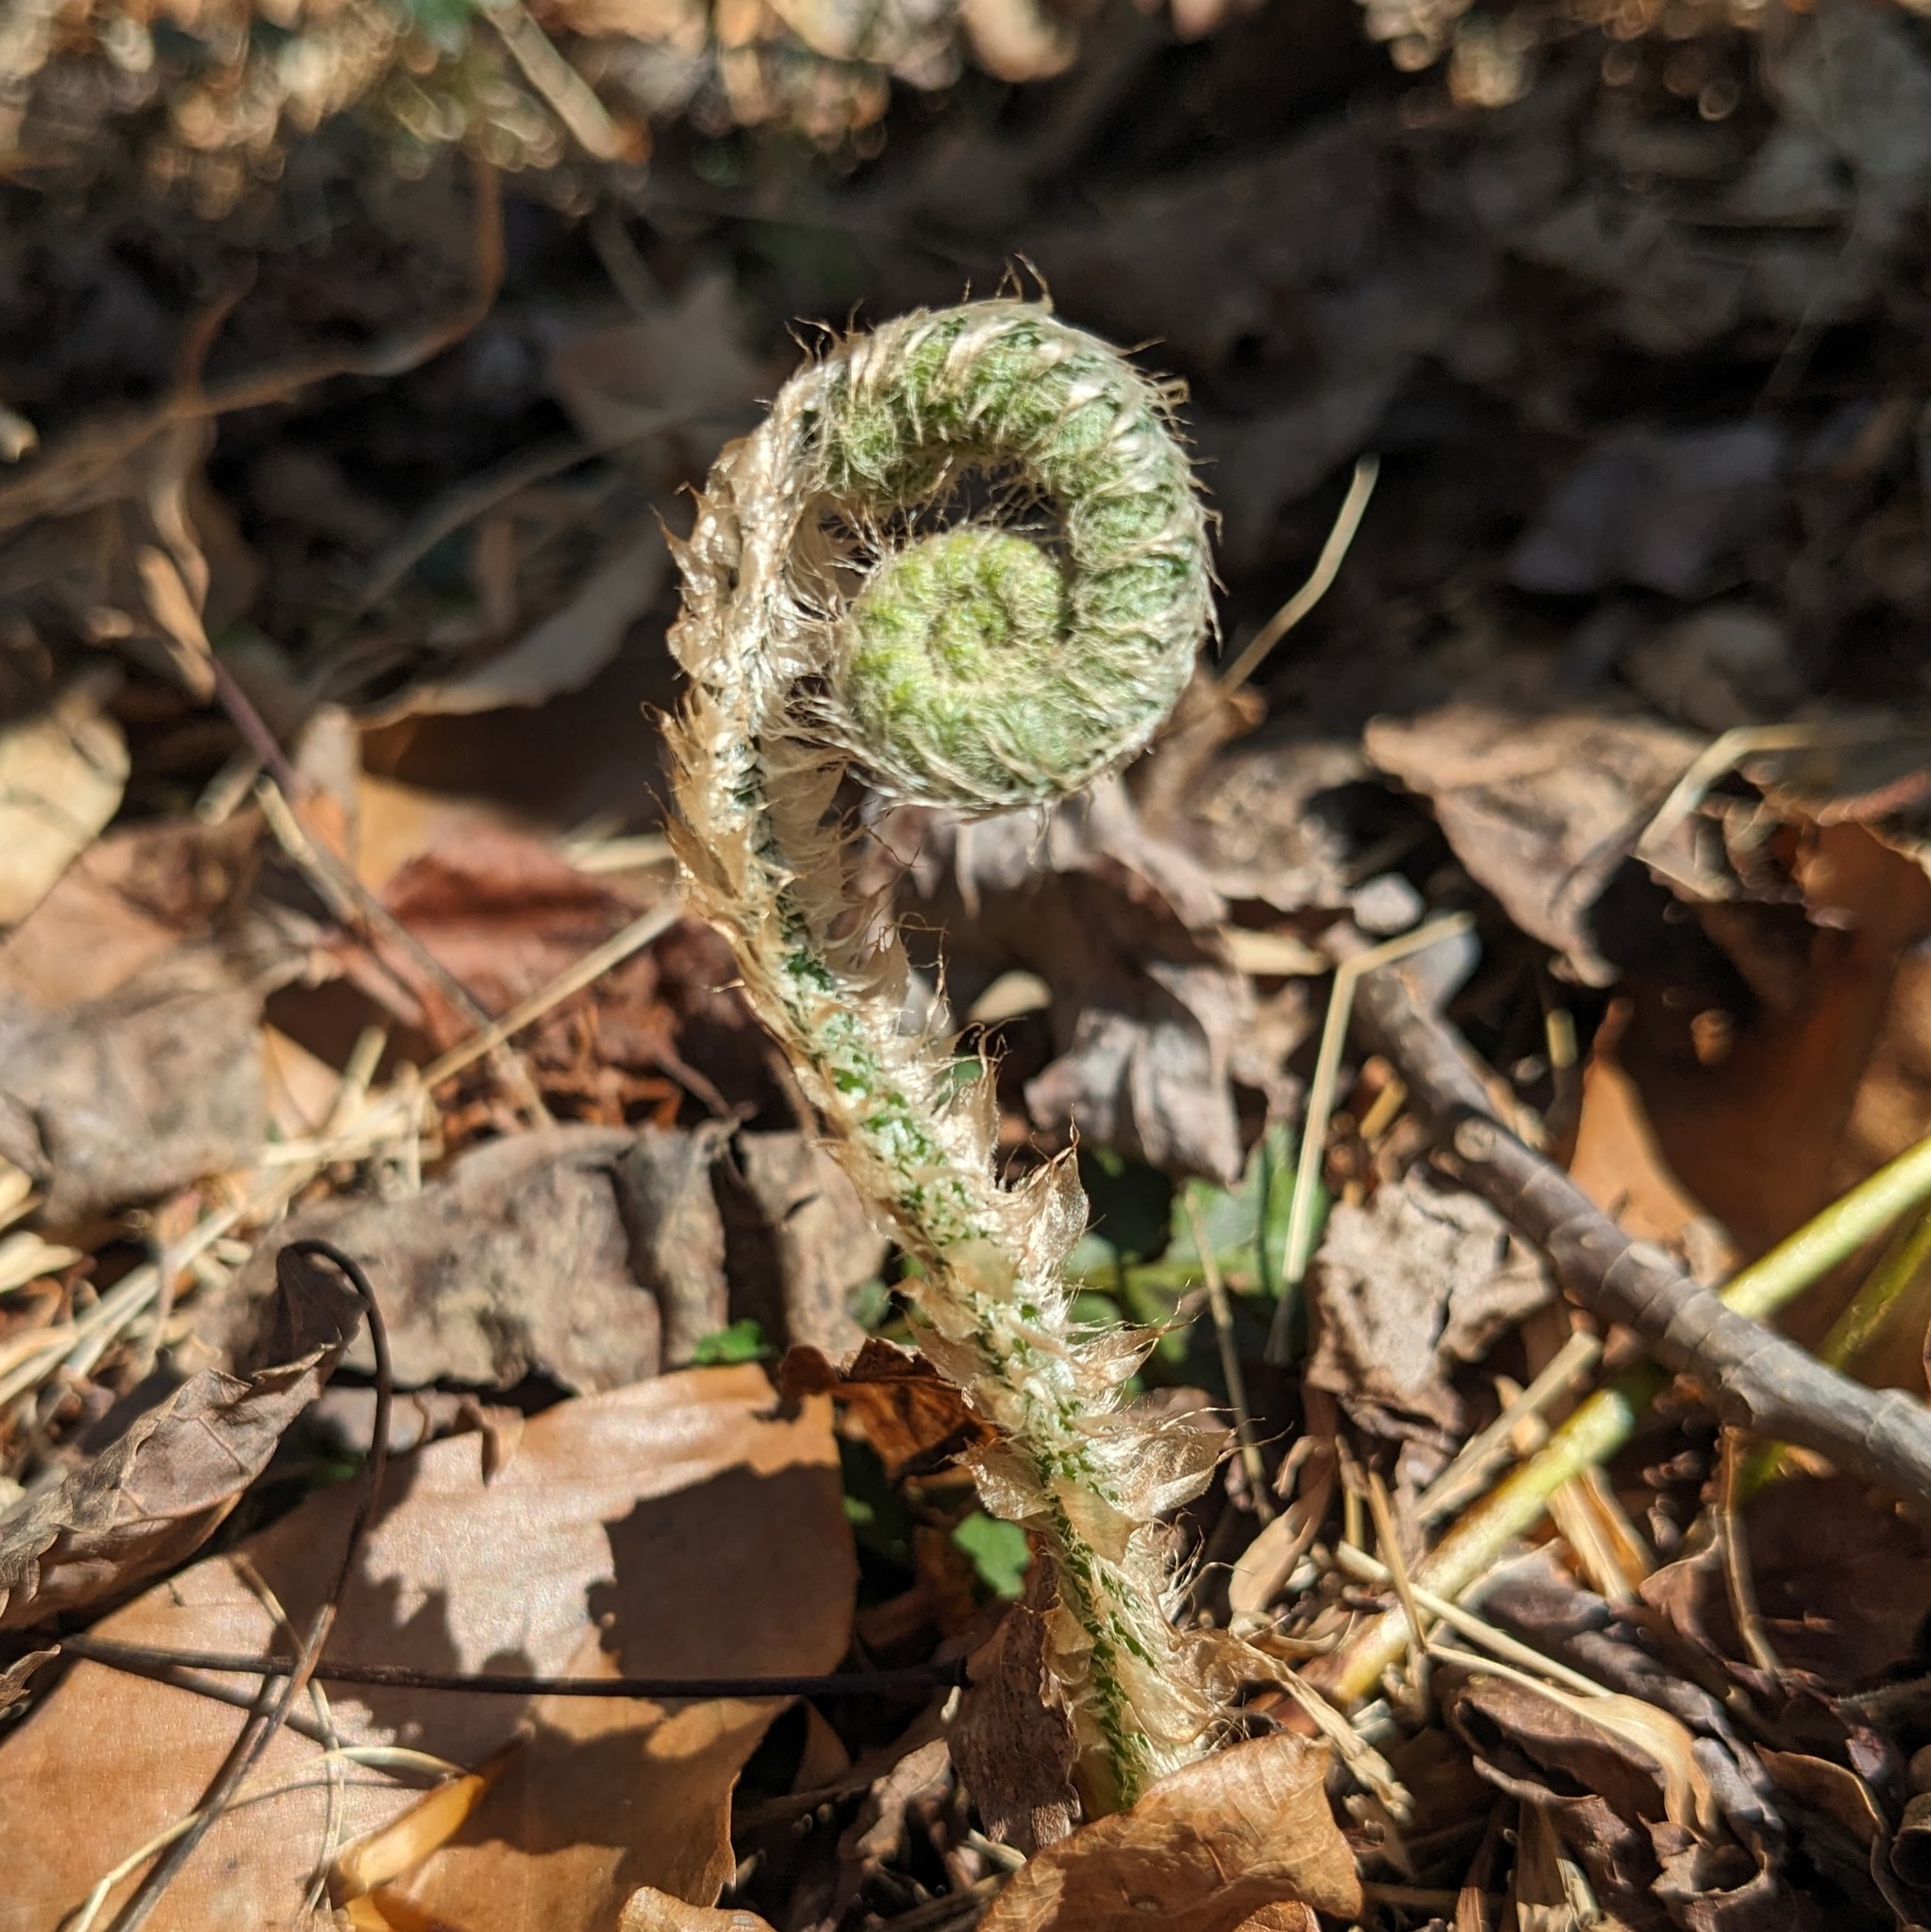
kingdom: Plantae
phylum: Tracheophyta
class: Polypodiopsida
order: Polypodiales
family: Dryopteridaceae
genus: Polystichum
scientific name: Polystichum acrostichoides
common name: Christmas fern
